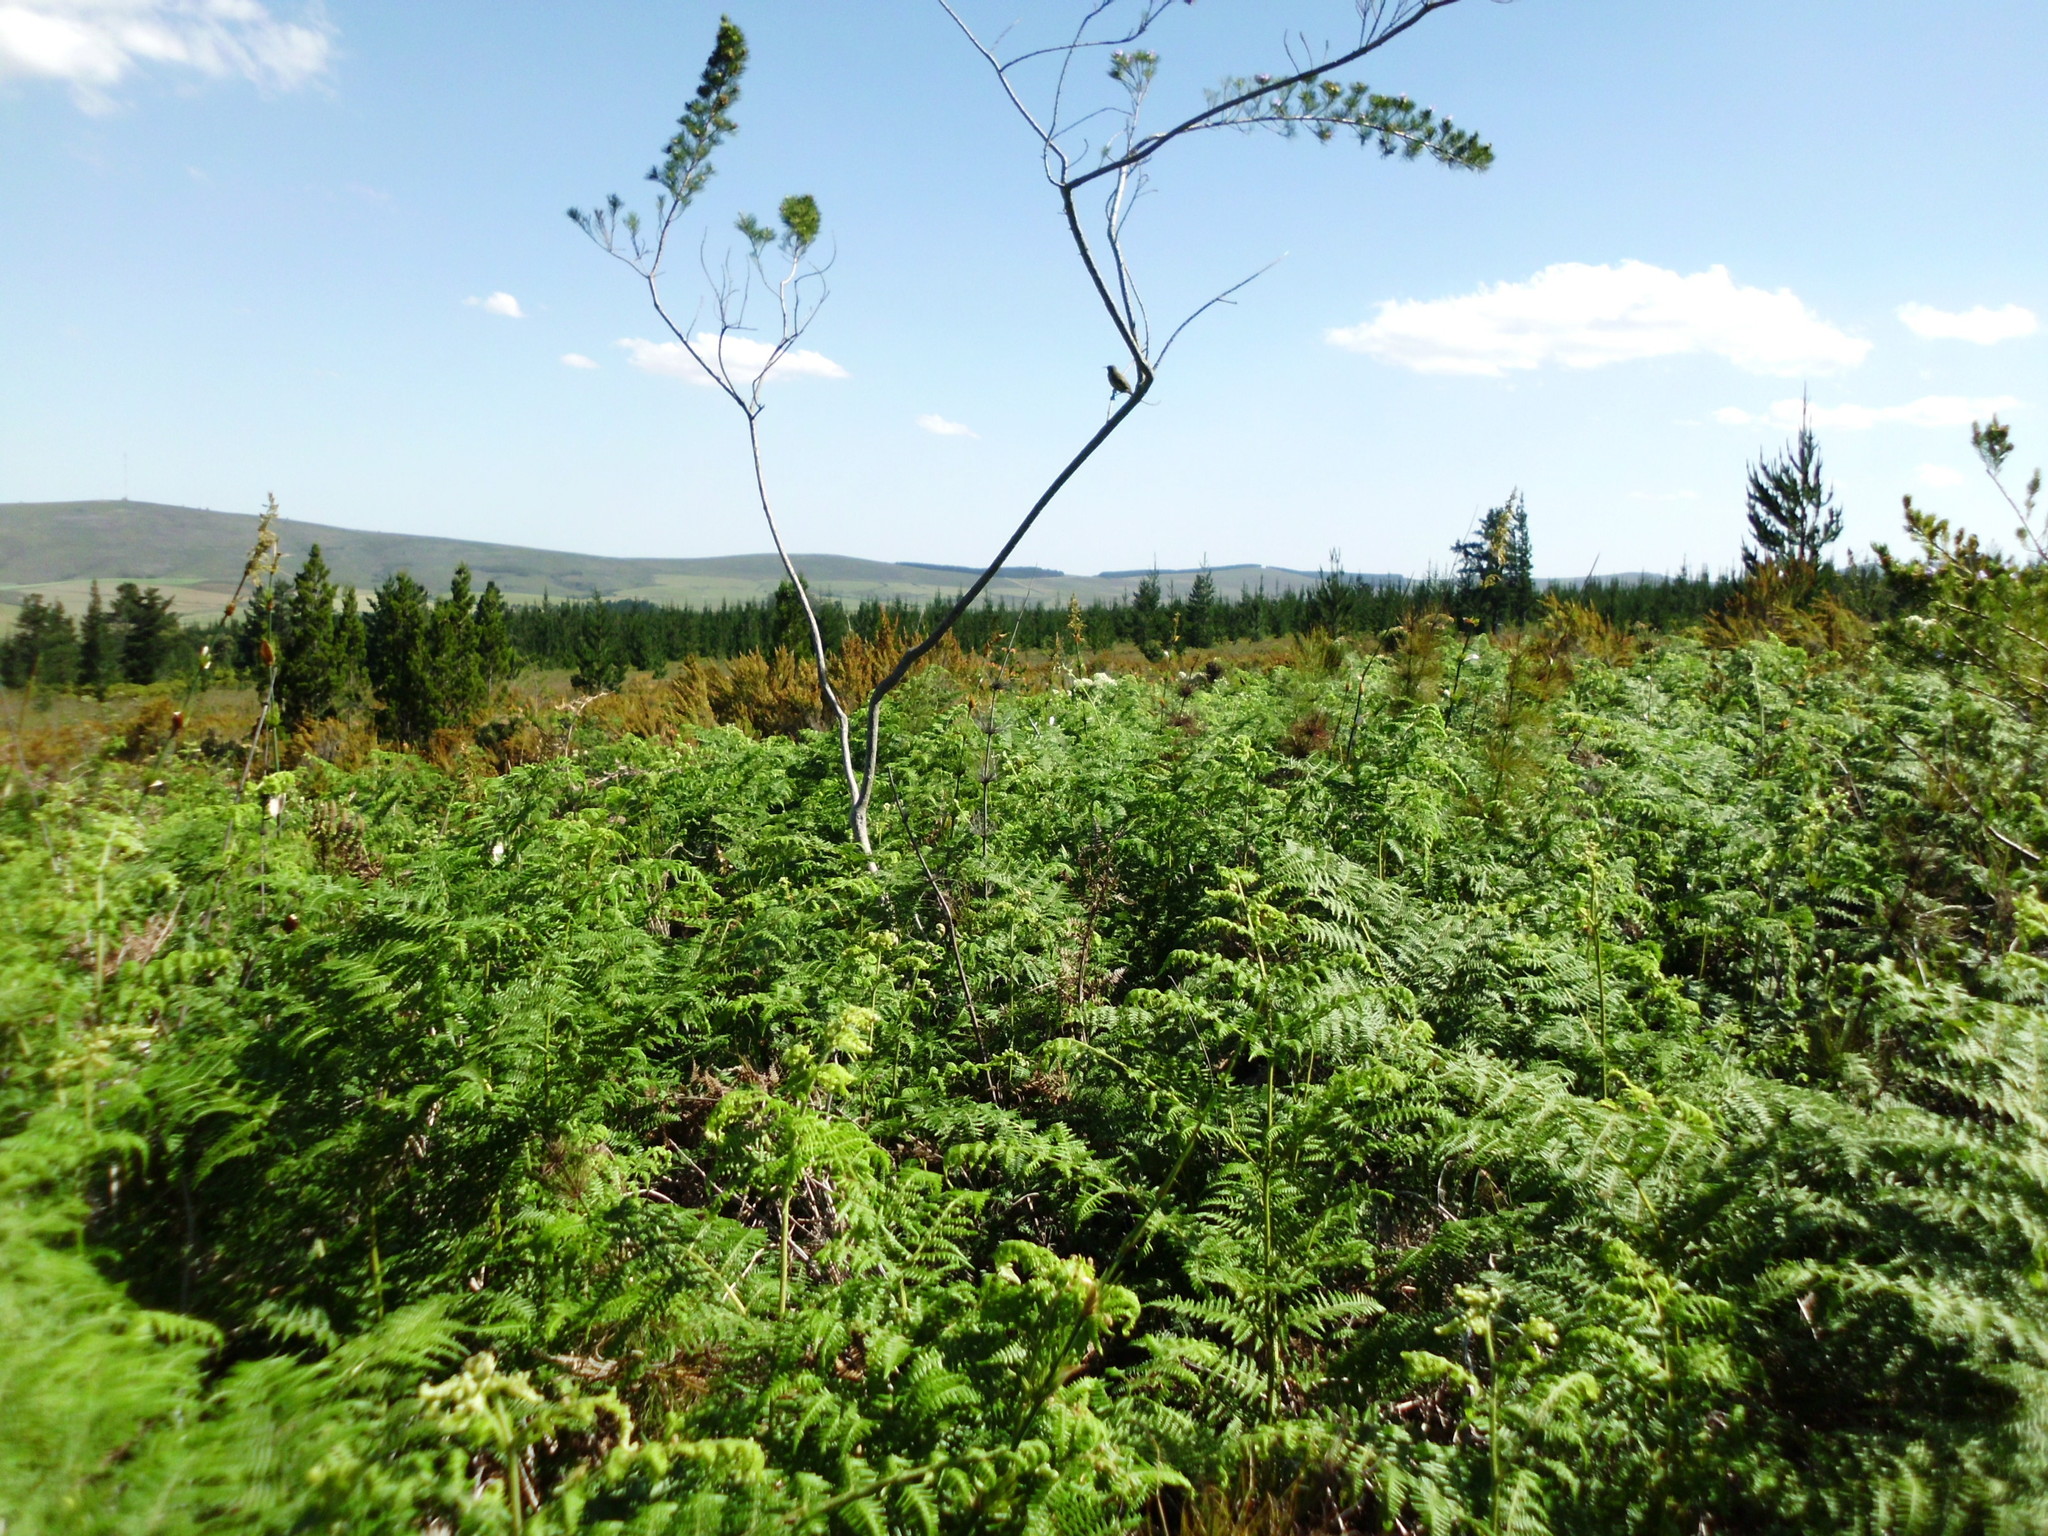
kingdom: Plantae
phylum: Tracheophyta
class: Polypodiopsida
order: Polypodiales
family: Dennstaedtiaceae
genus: Pteridium
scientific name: Pteridium aquilinum
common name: Bracken
